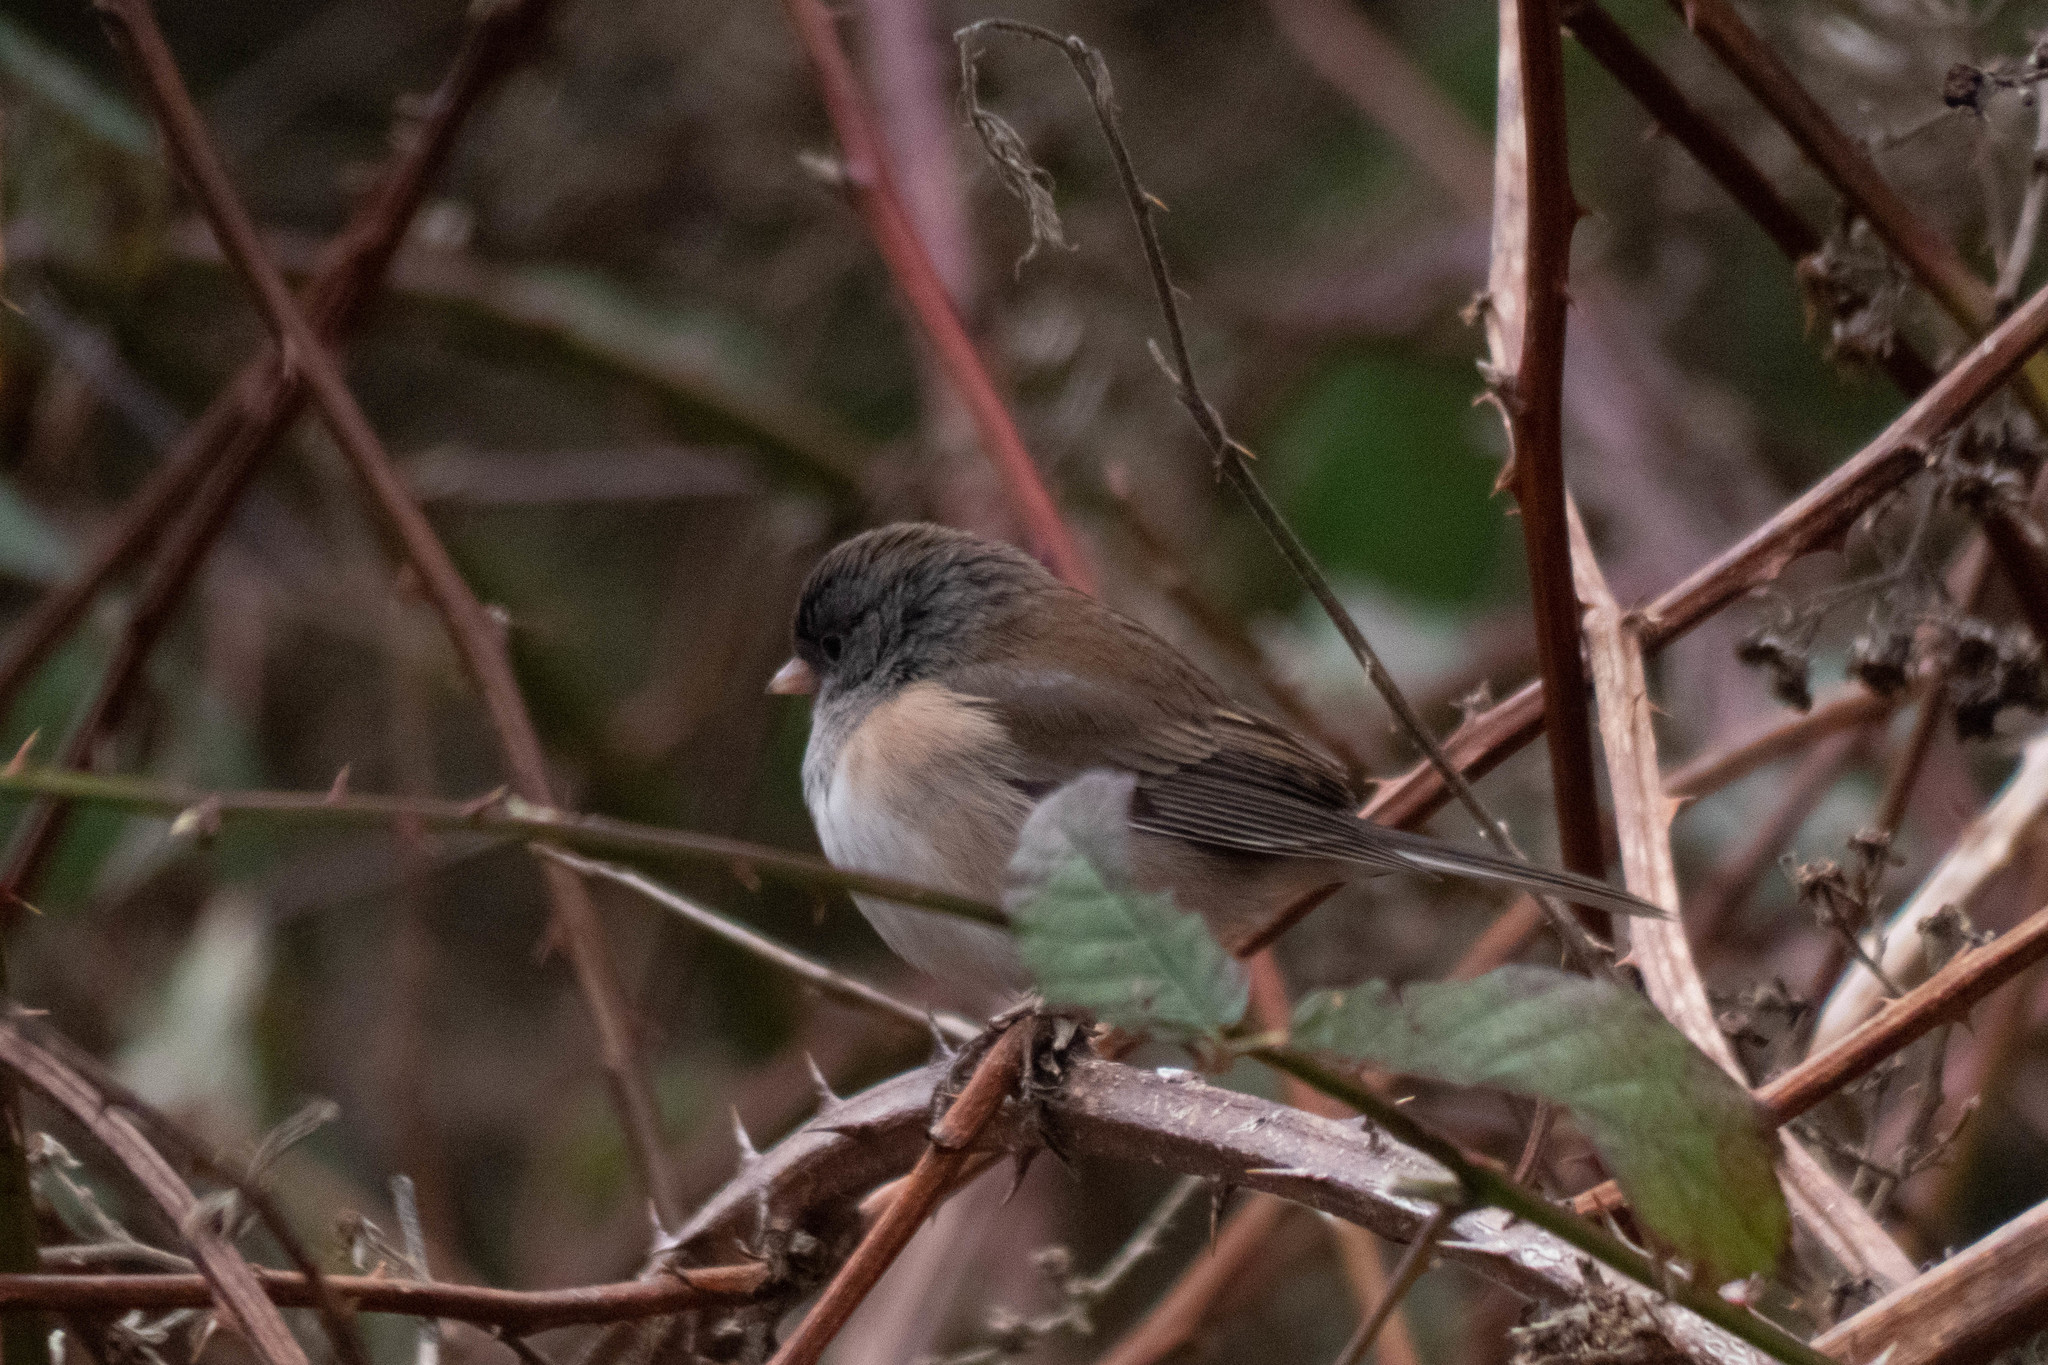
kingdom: Animalia
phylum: Chordata
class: Aves
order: Passeriformes
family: Passerellidae
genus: Junco
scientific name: Junco hyemalis
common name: Dark-eyed junco
